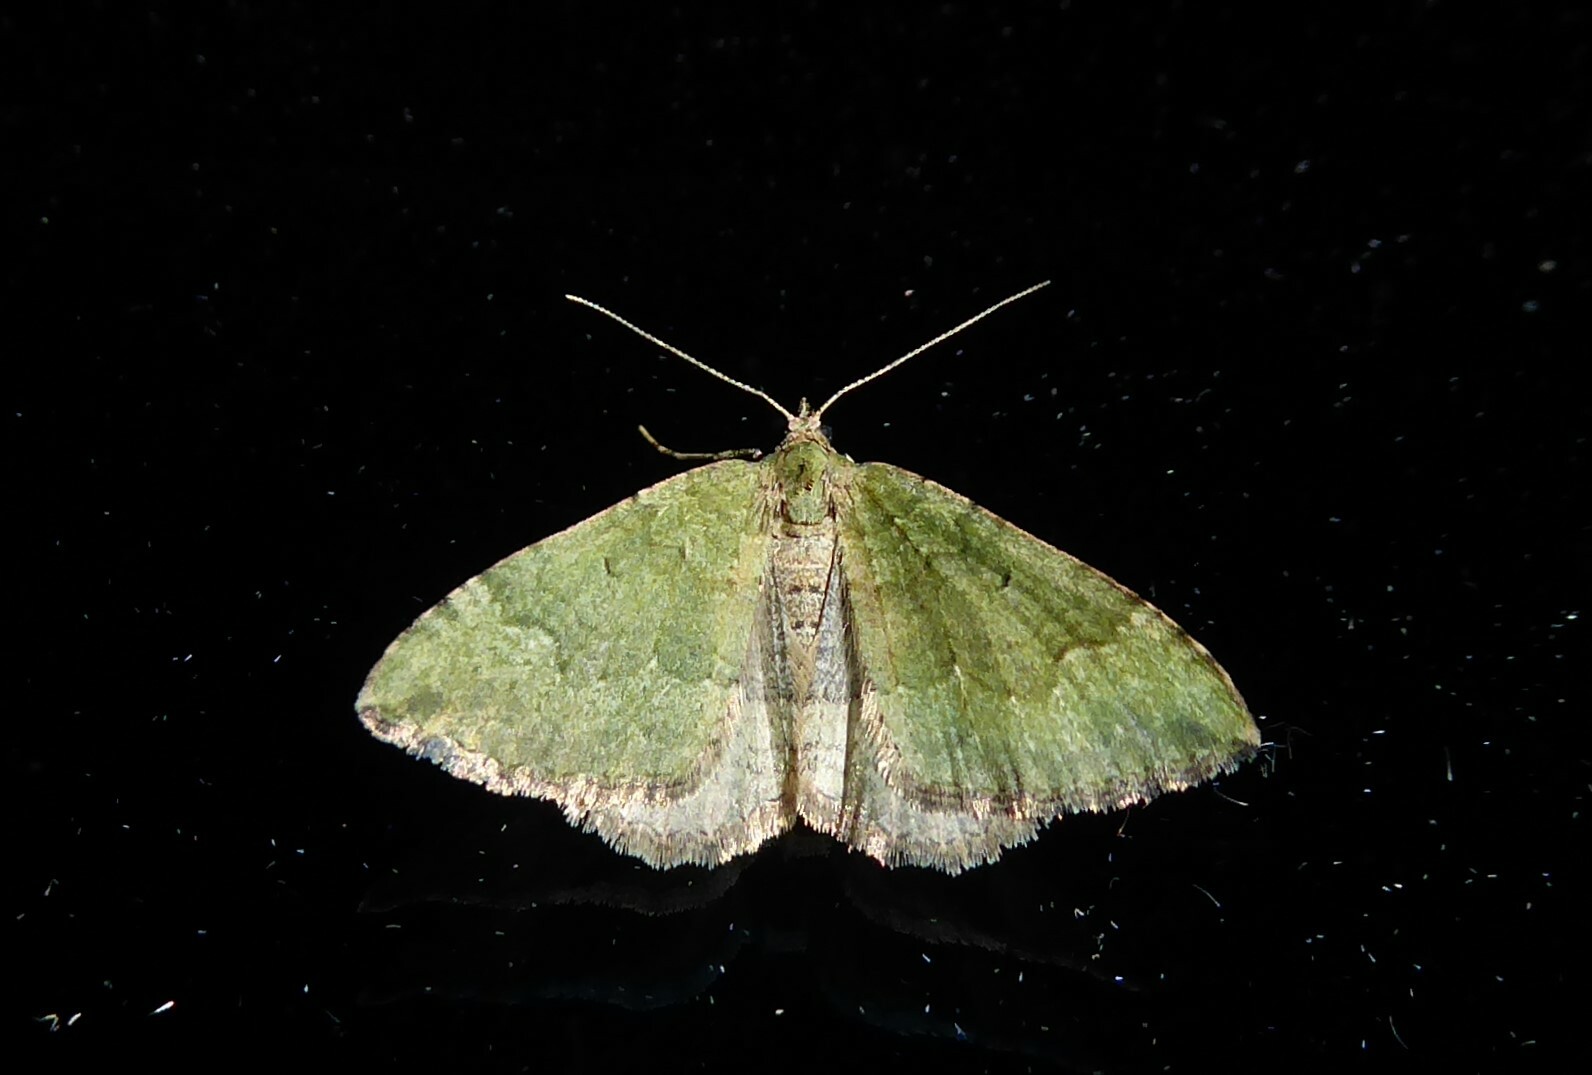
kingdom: Animalia
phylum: Arthropoda
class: Insecta
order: Lepidoptera
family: Geometridae
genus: Epyaxa
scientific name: Epyaxa rosearia
